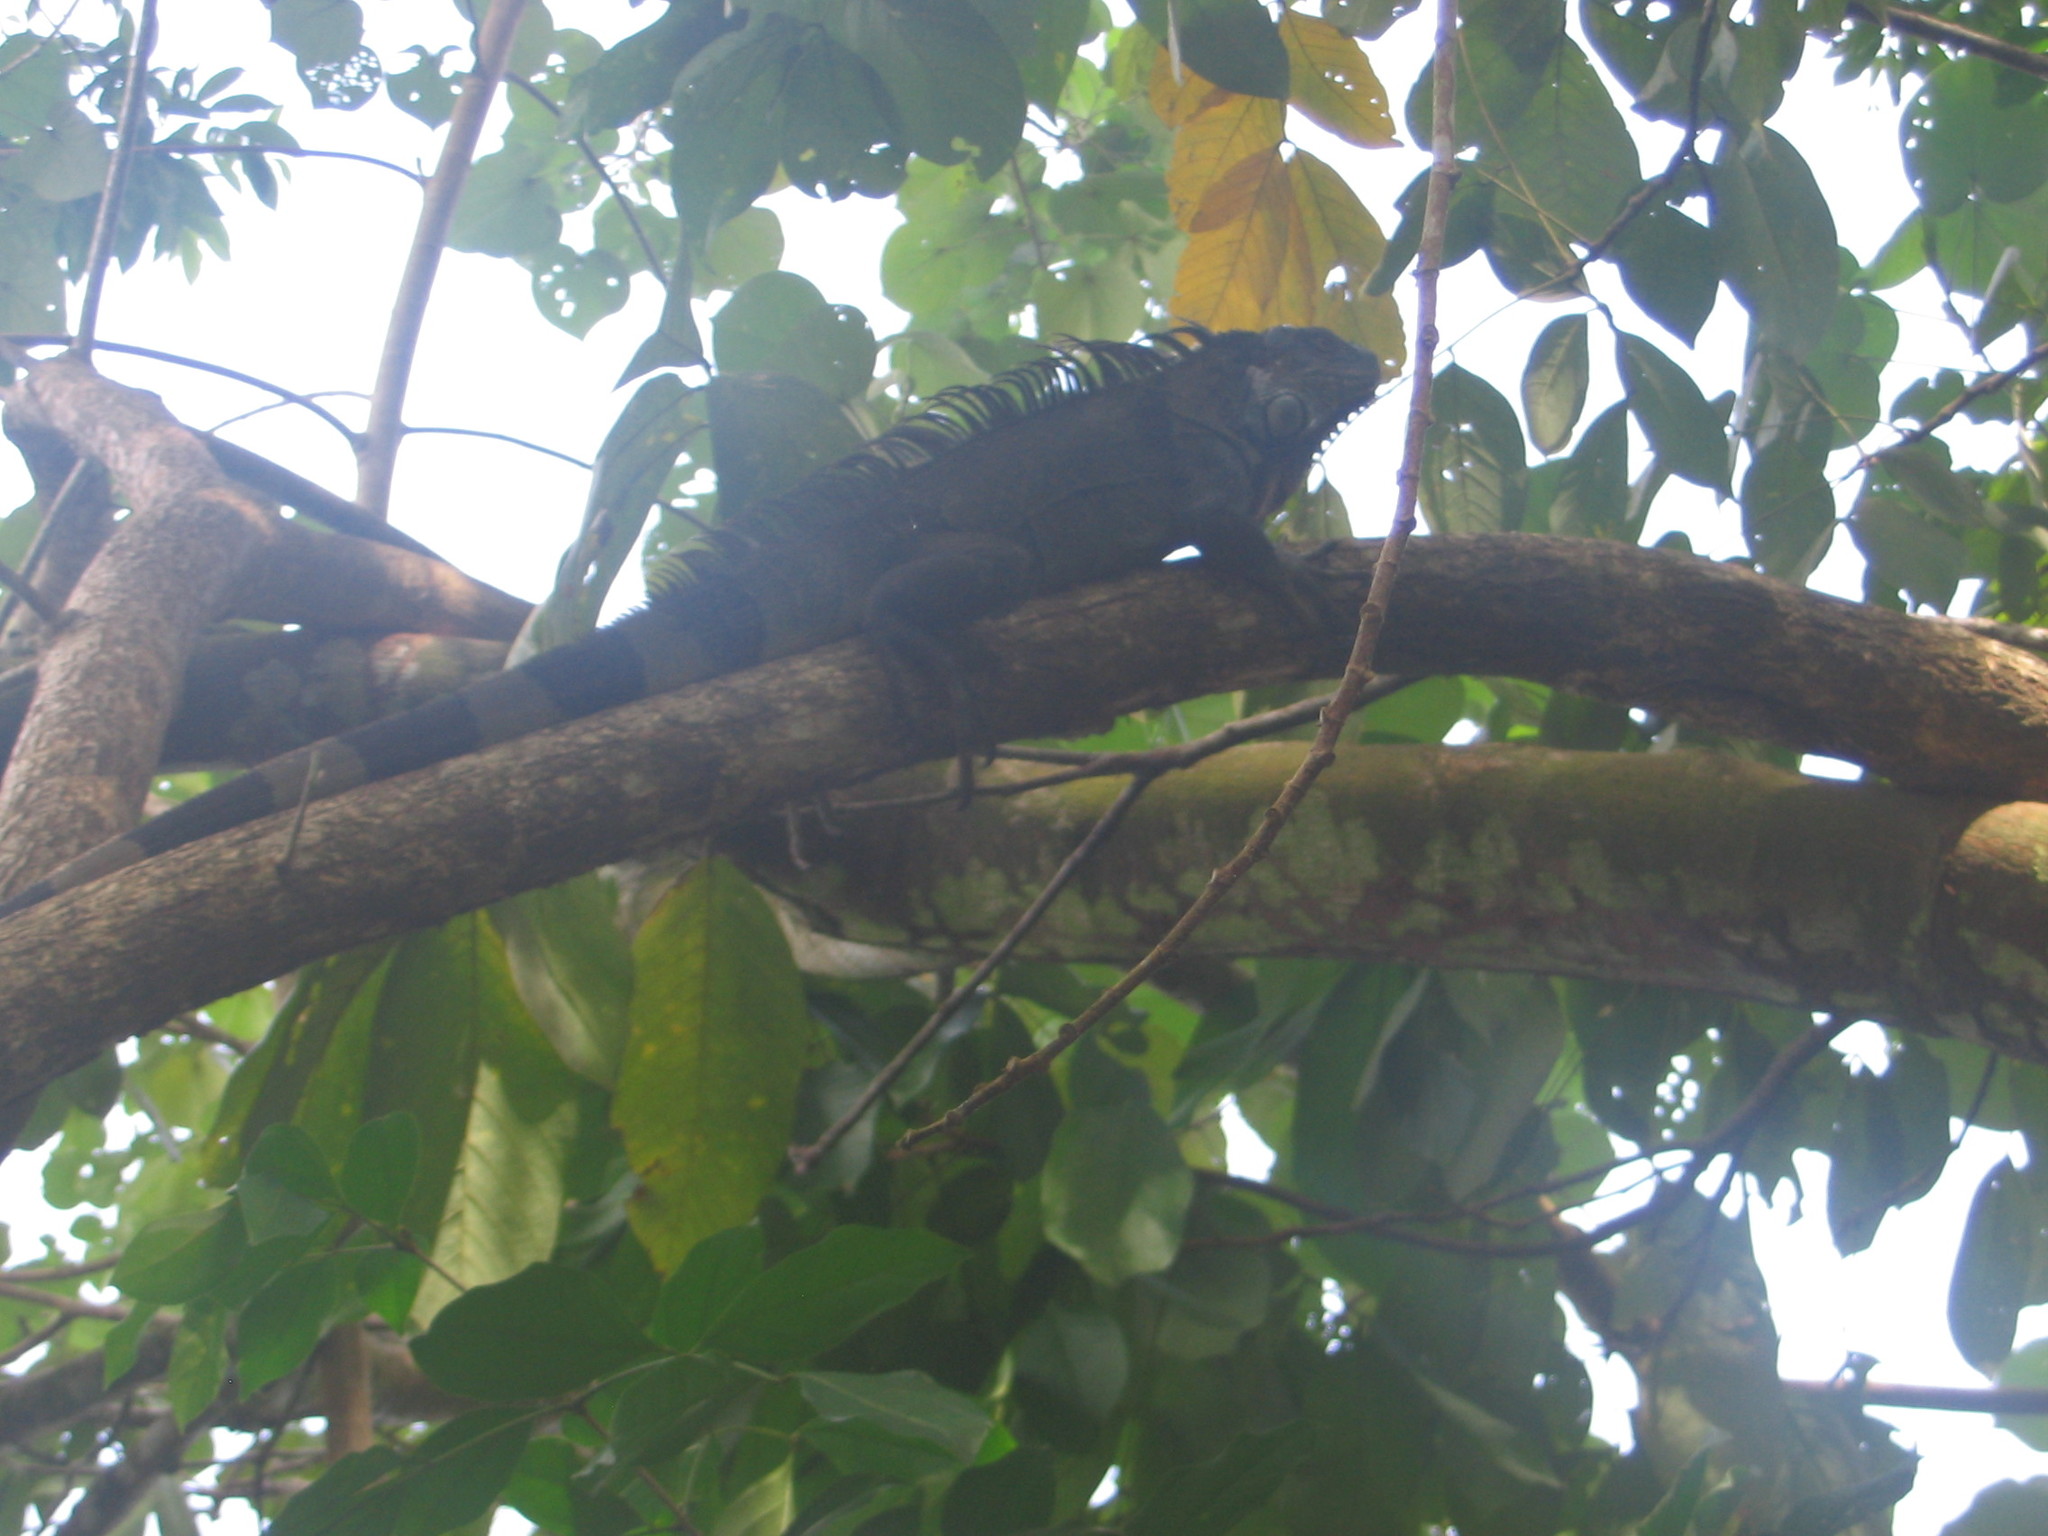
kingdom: Animalia
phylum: Chordata
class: Squamata
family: Iguanidae
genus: Iguana
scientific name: Iguana iguana
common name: Green iguana
